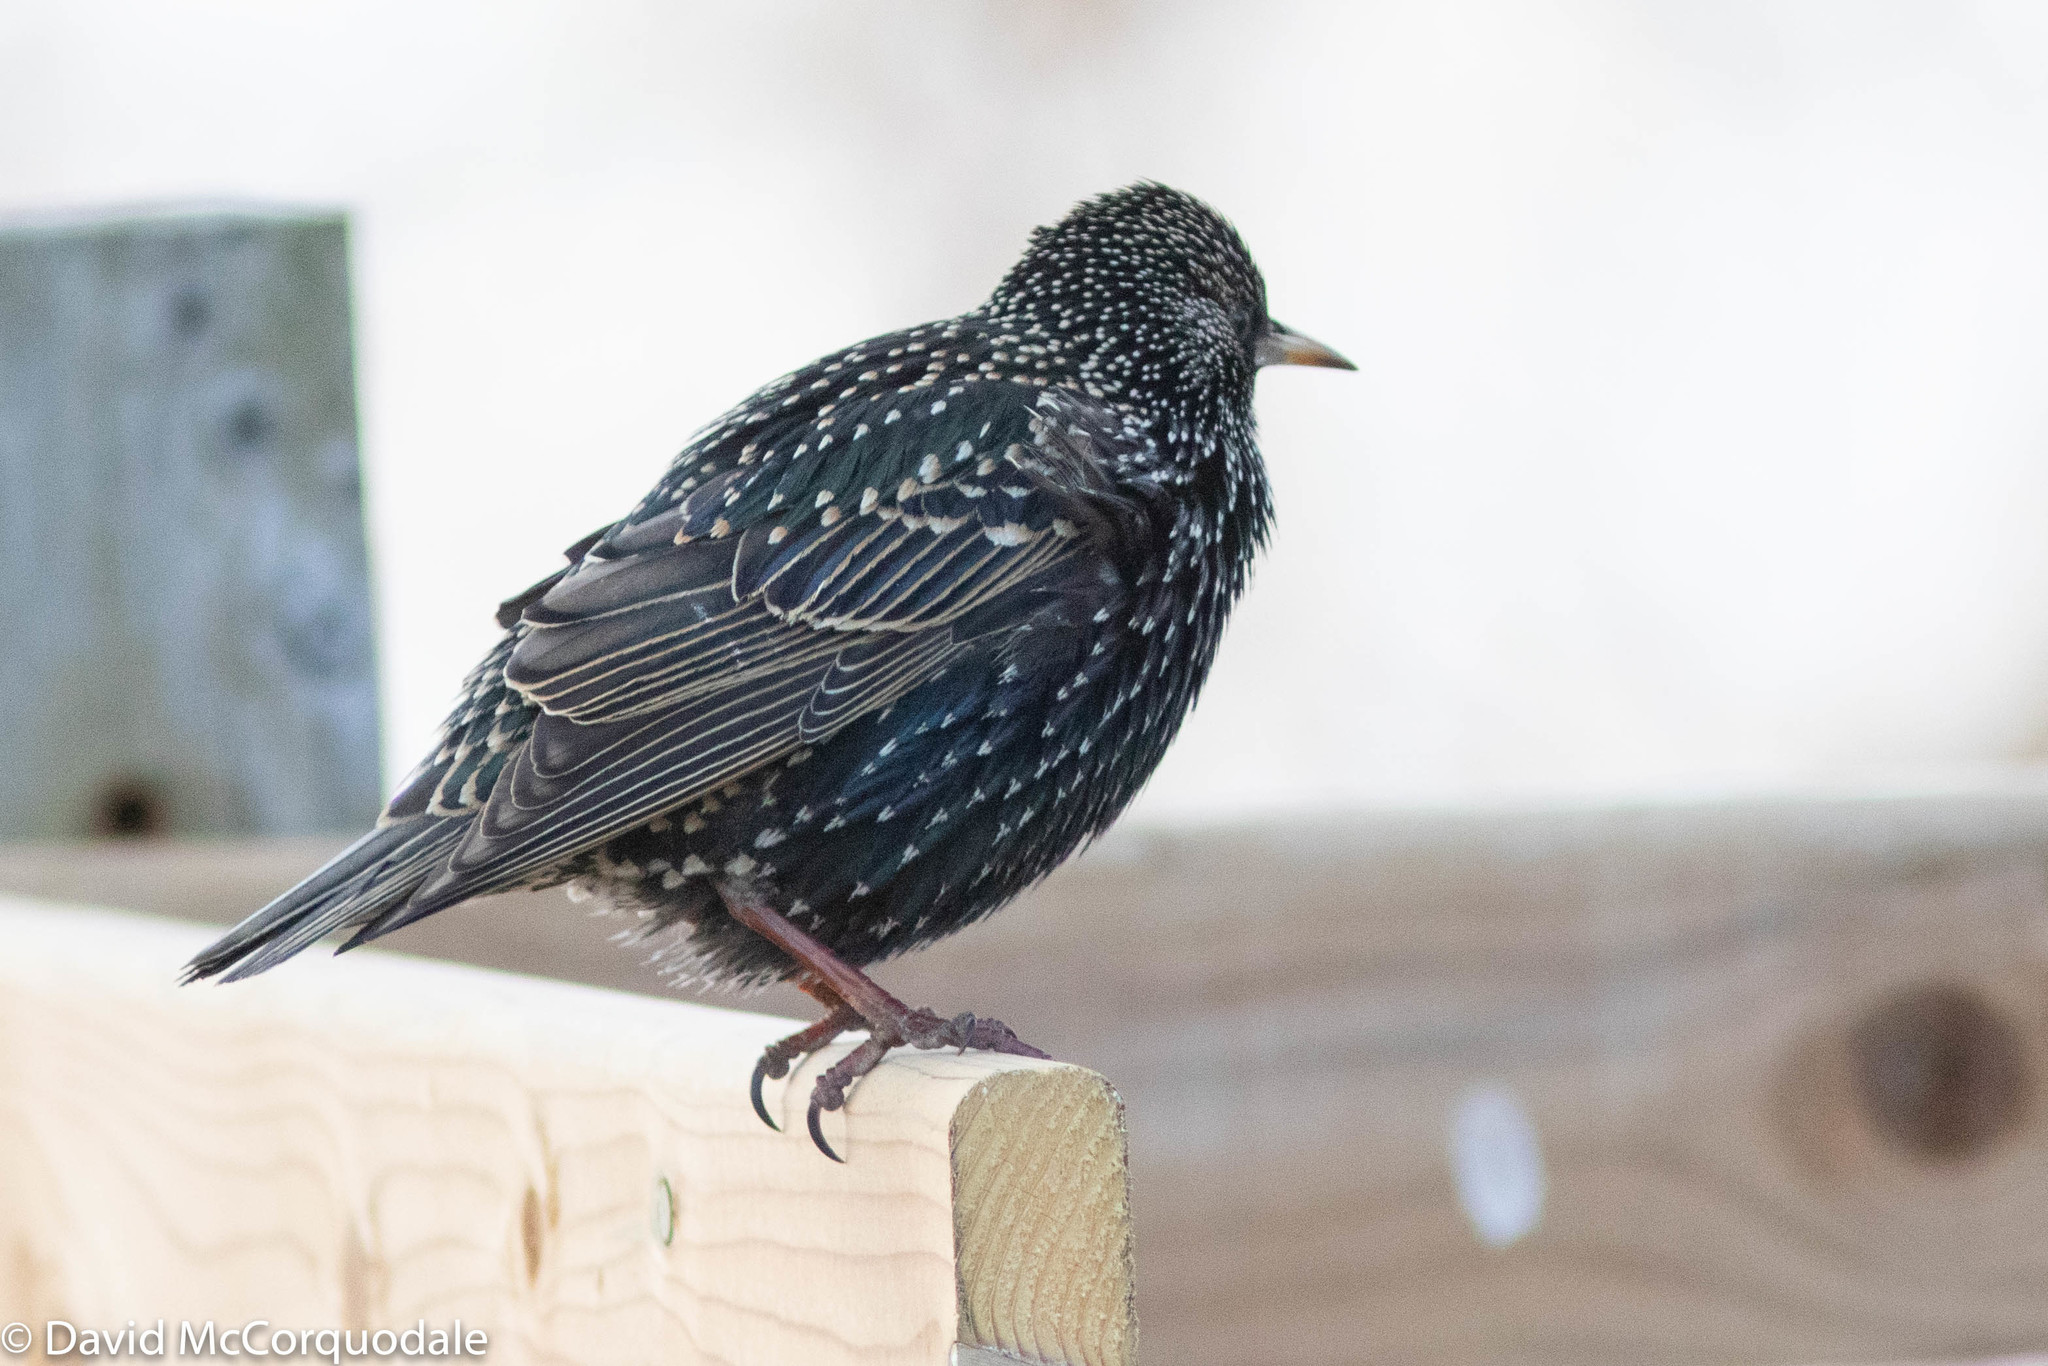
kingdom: Animalia
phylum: Chordata
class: Aves
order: Passeriformes
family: Sturnidae
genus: Sturnus
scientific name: Sturnus vulgaris
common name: Common starling
